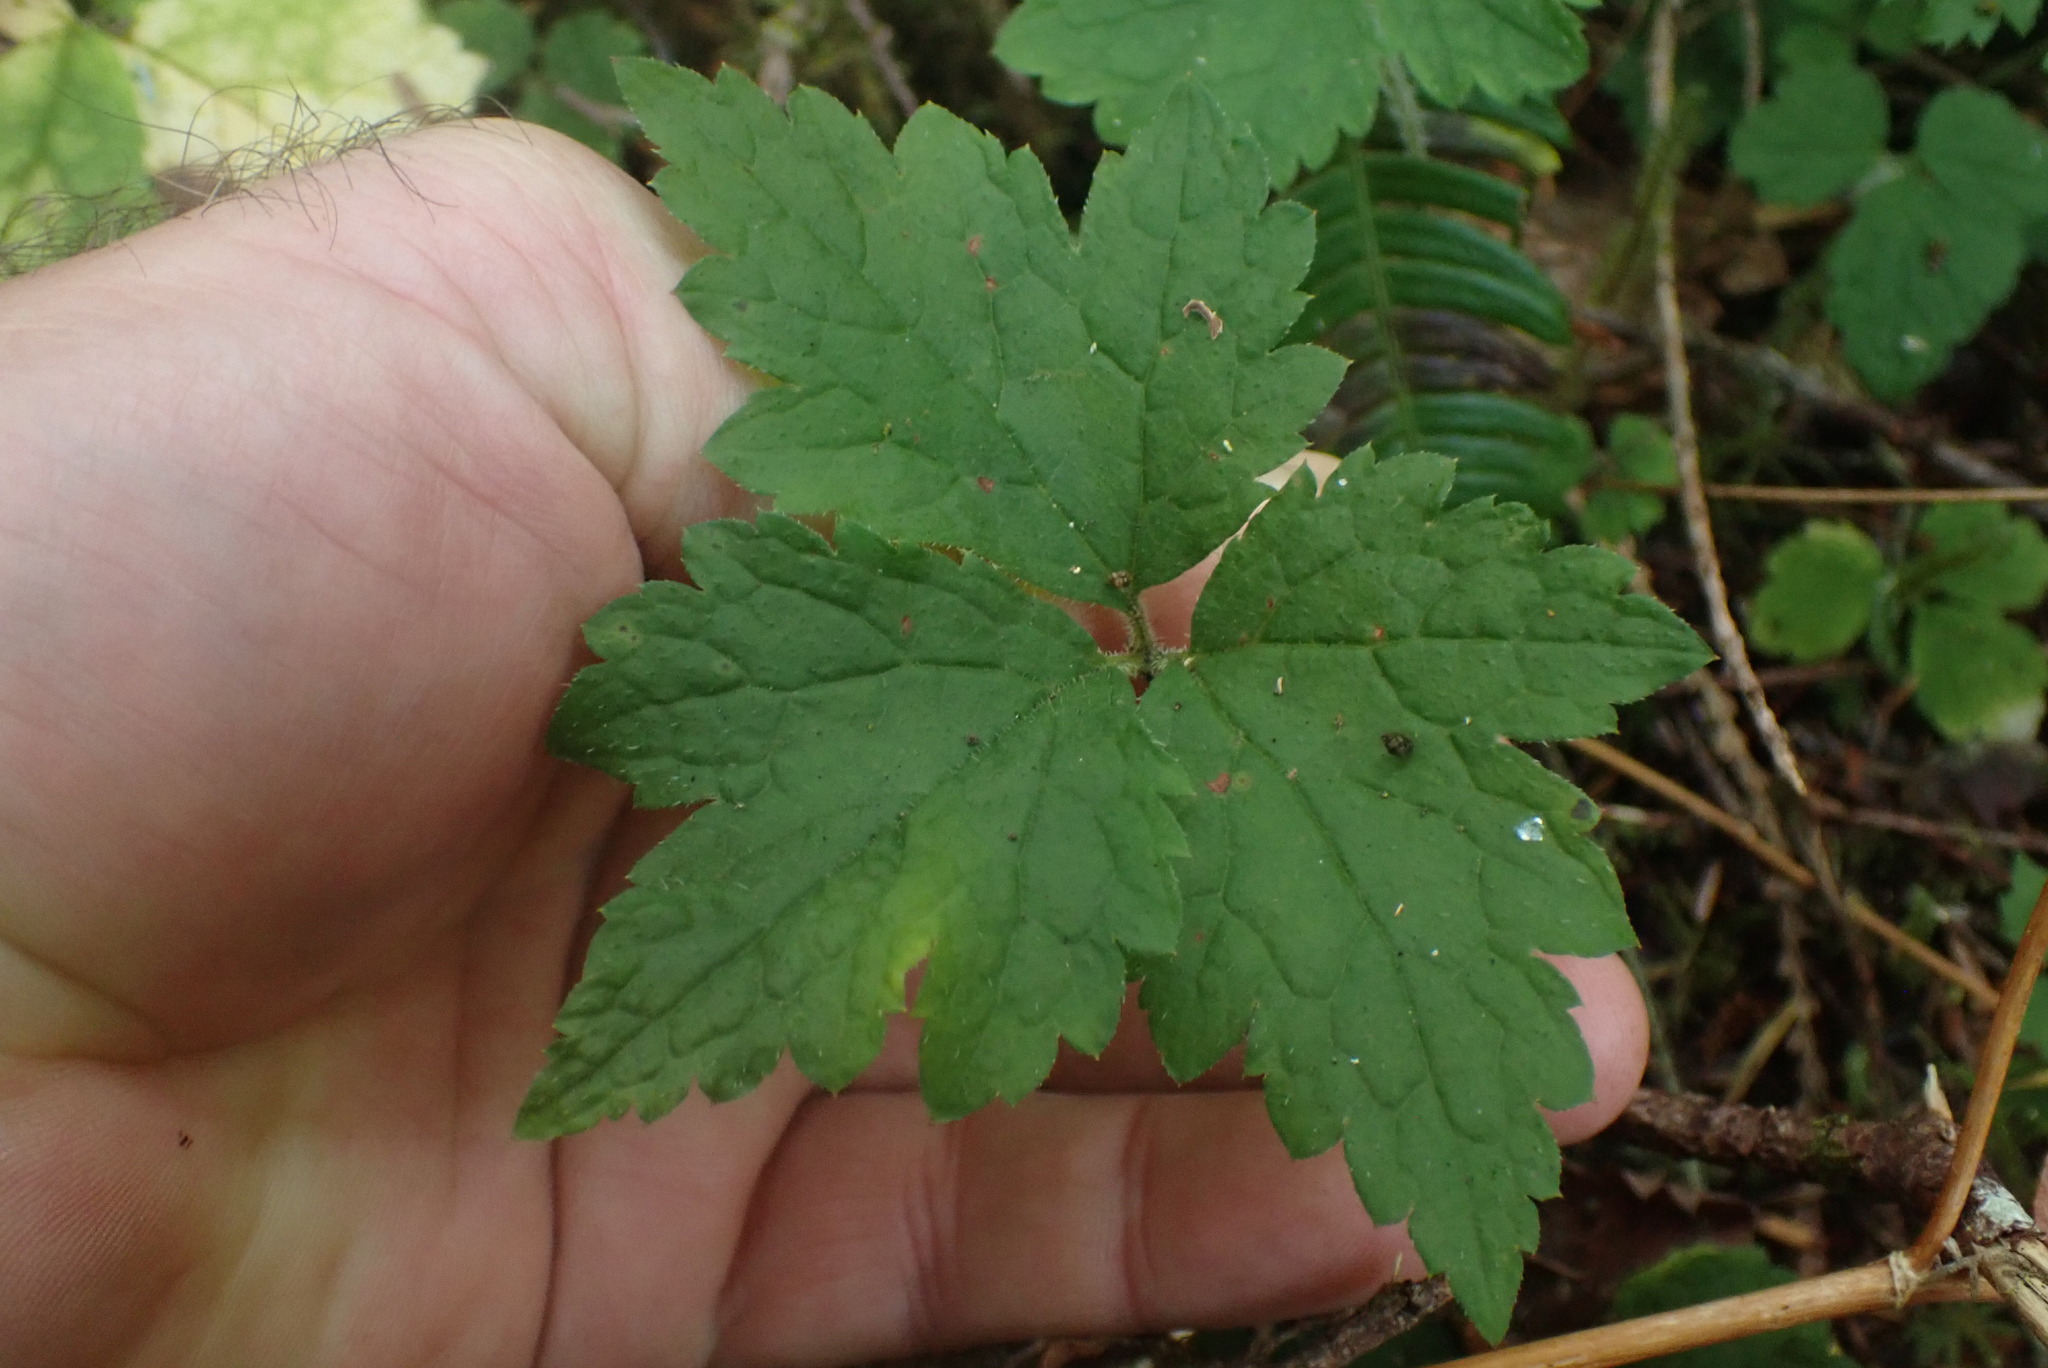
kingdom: Plantae
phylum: Tracheophyta
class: Magnoliopsida
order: Saxifragales
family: Saxifragaceae
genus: Tiarella
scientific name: Tiarella trifoliata
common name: Sugar-scoop
